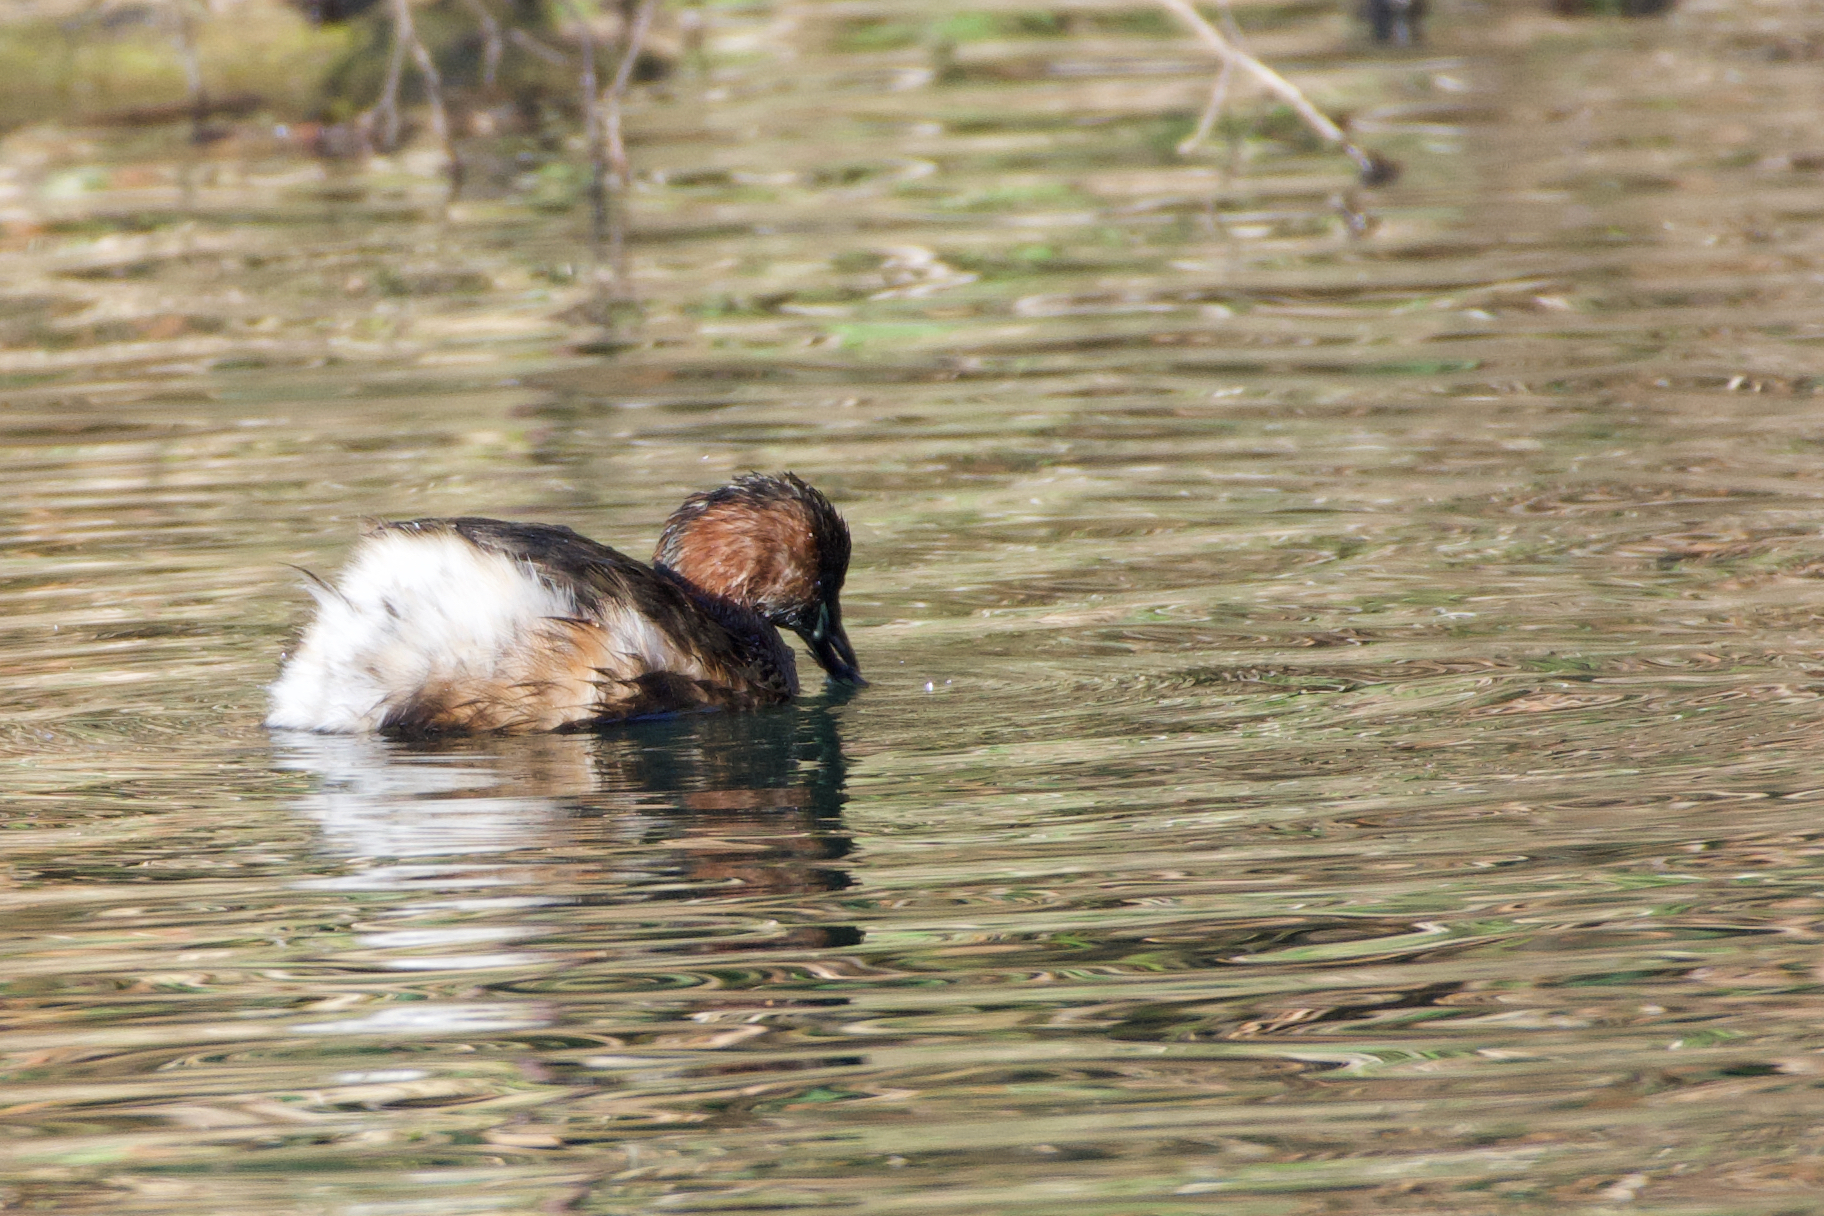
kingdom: Animalia
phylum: Chordata
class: Aves
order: Podicipediformes
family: Podicipedidae
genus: Tachybaptus
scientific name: Tachybaptus ruficollis
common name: Little grebe
